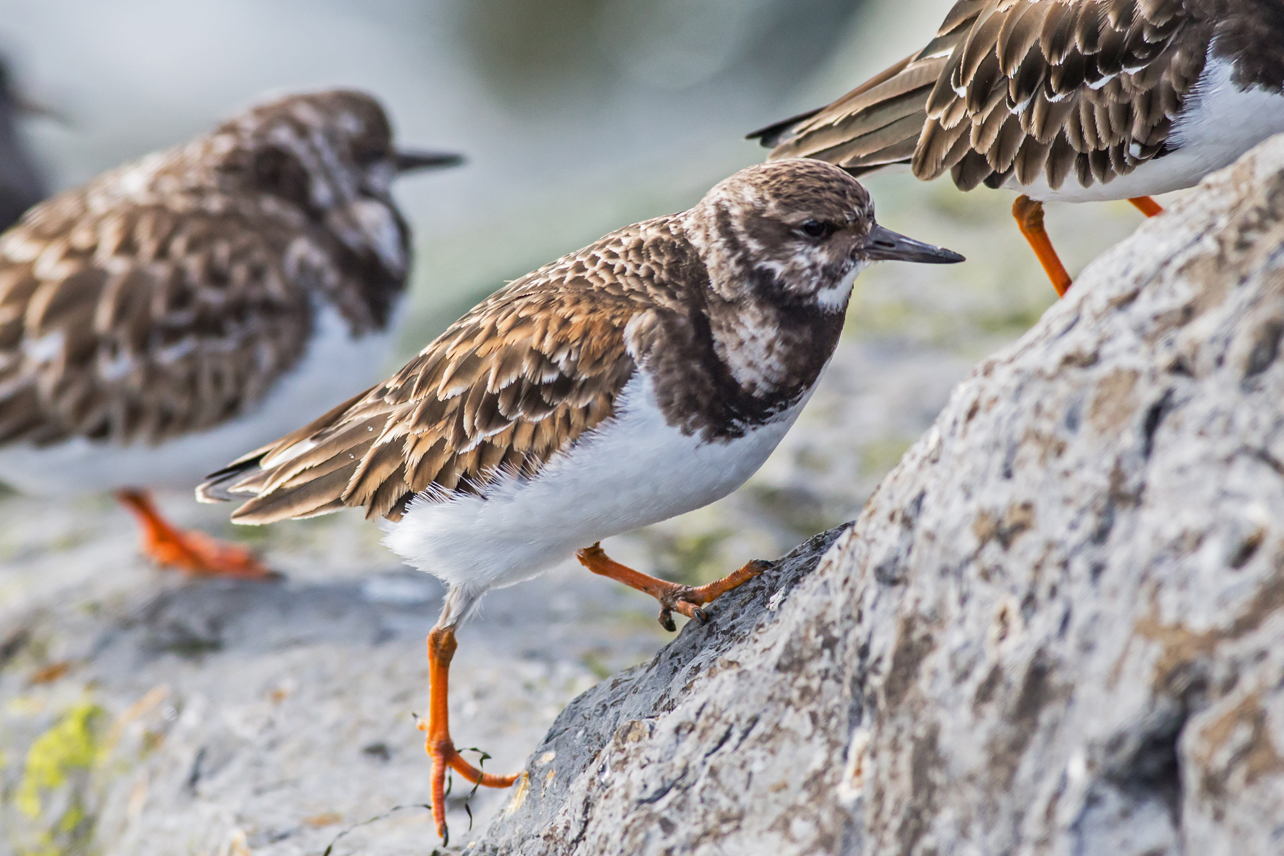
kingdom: Animalia
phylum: Chordata
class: Aves
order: Charadriiformes
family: Scolopacidae
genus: Arenaria
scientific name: Arenaria interpres
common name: Ruddy turnstone
